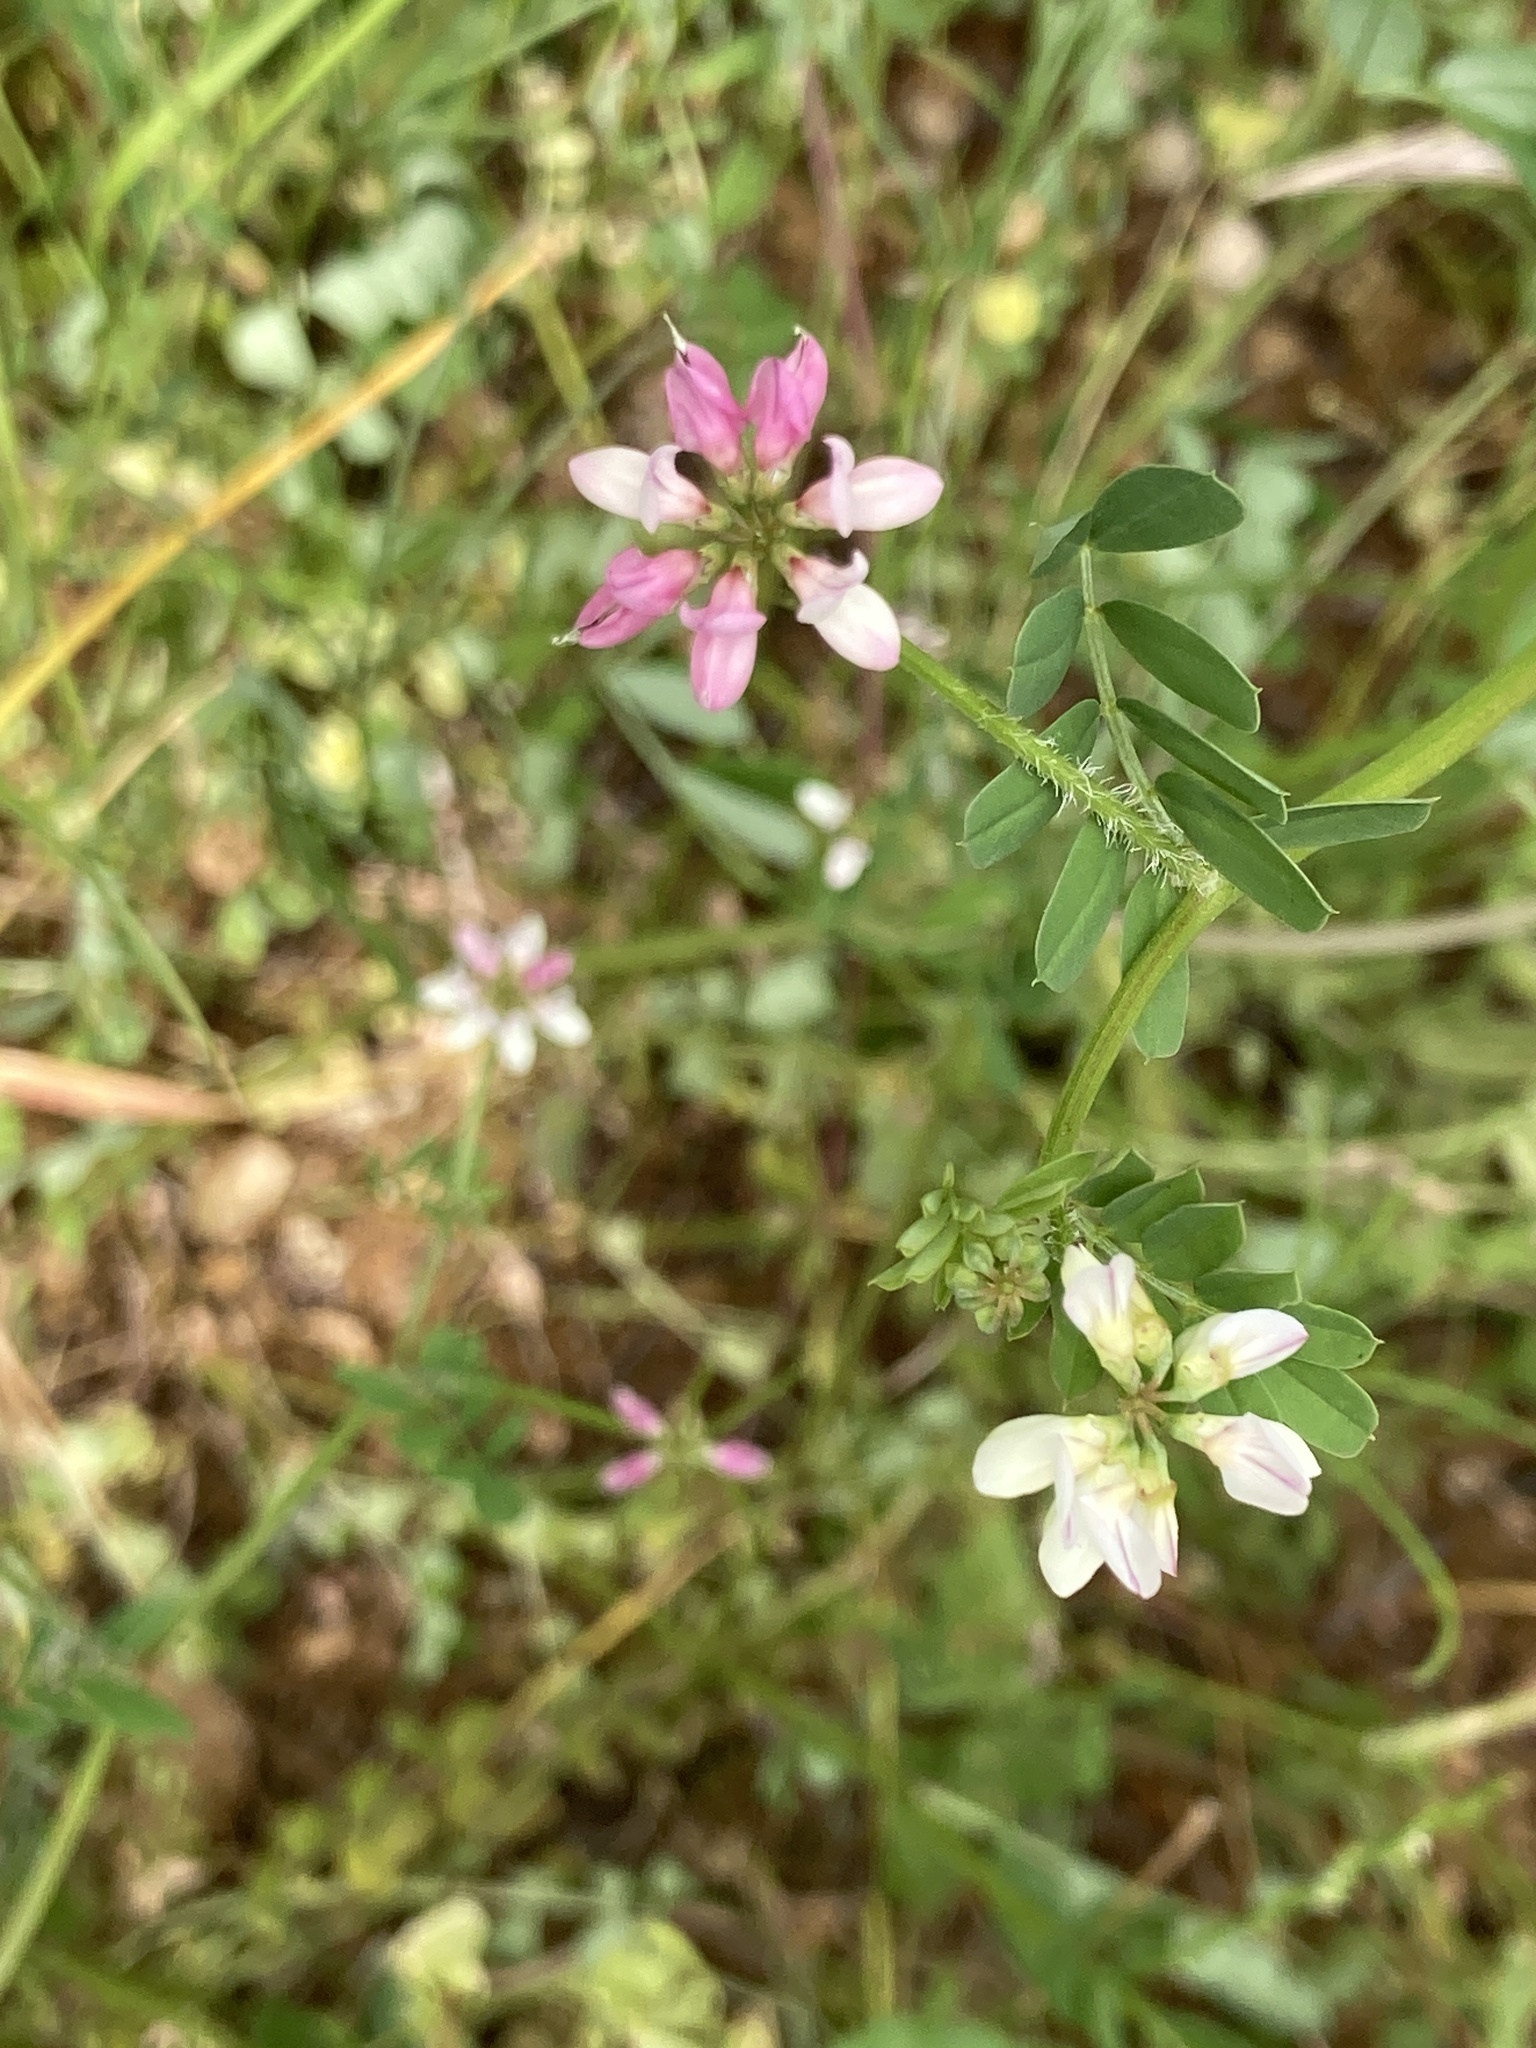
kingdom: Plantae
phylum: Tracheophyta
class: Magnoliopsida
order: Fabales
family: Fabaceae
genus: Coronilla
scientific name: Coronilla varia
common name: Crownvetch
